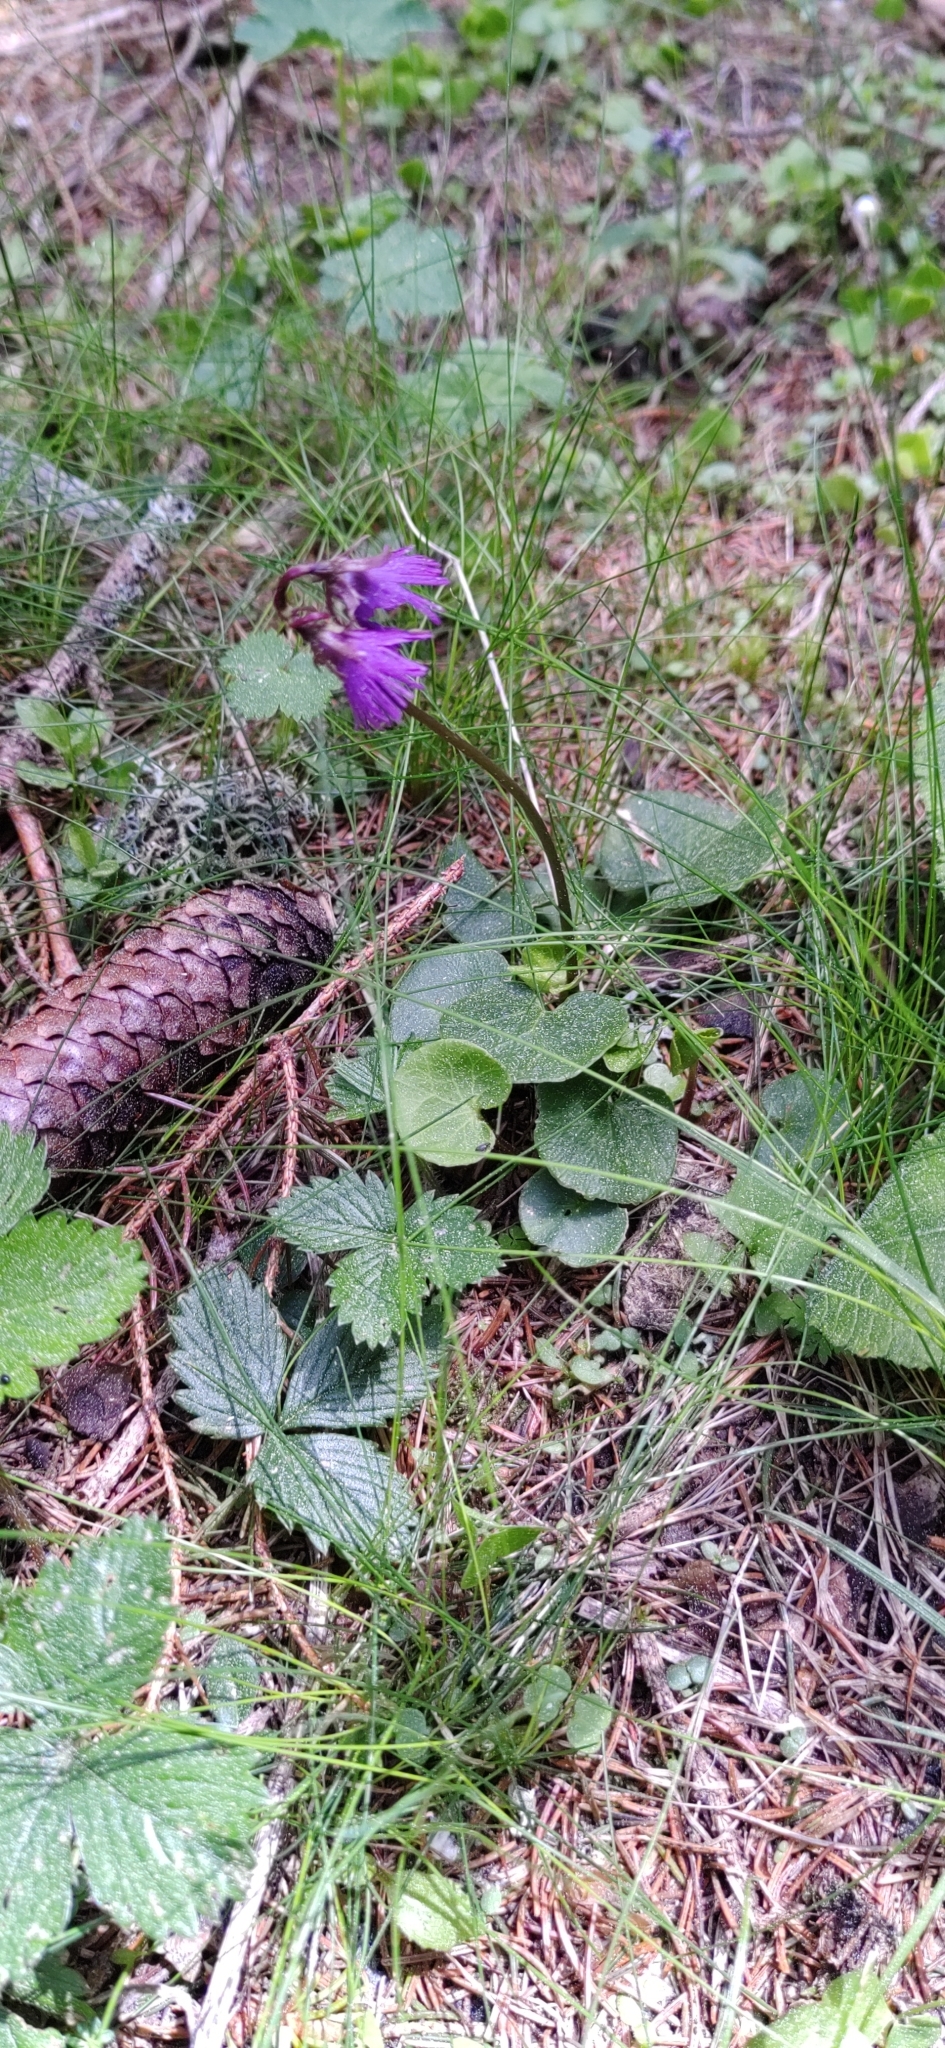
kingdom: Plantae
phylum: Tracheophyta
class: Magnoliopsida
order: Ericales
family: Primulaceae
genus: Soldanella
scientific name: Soldanella alpina
